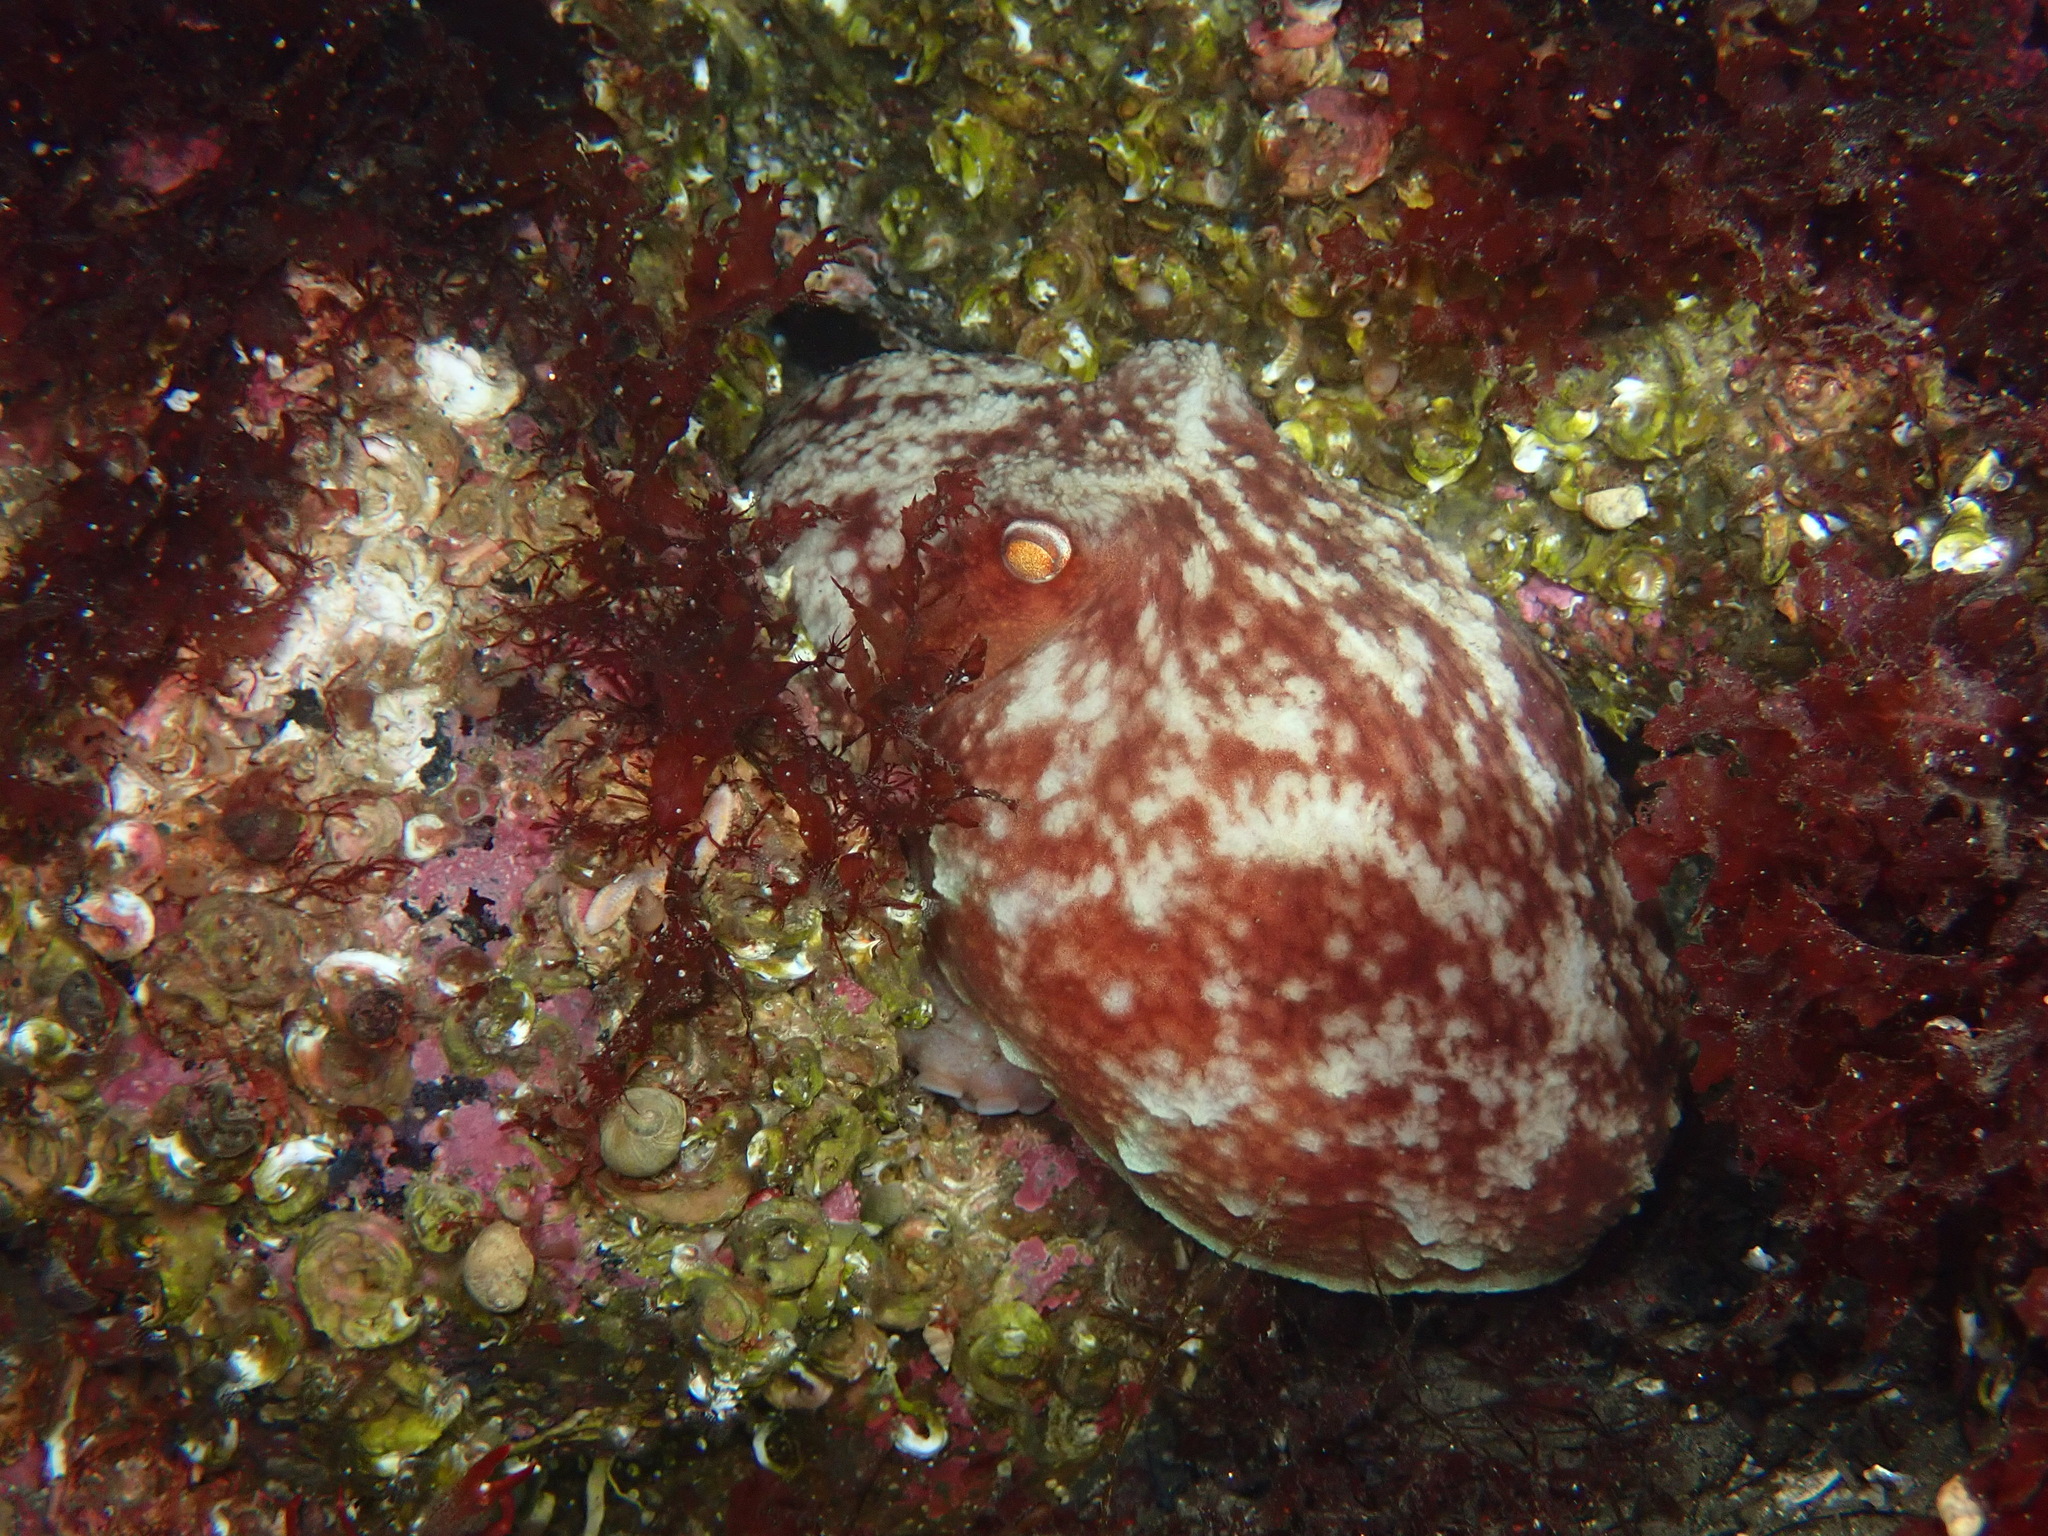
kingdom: Animalia
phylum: Mollusca
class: Cephalopoda
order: Octopoda
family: Eledonidae
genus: Eledone
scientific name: Eledone cirrhosa
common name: Curled octopus
